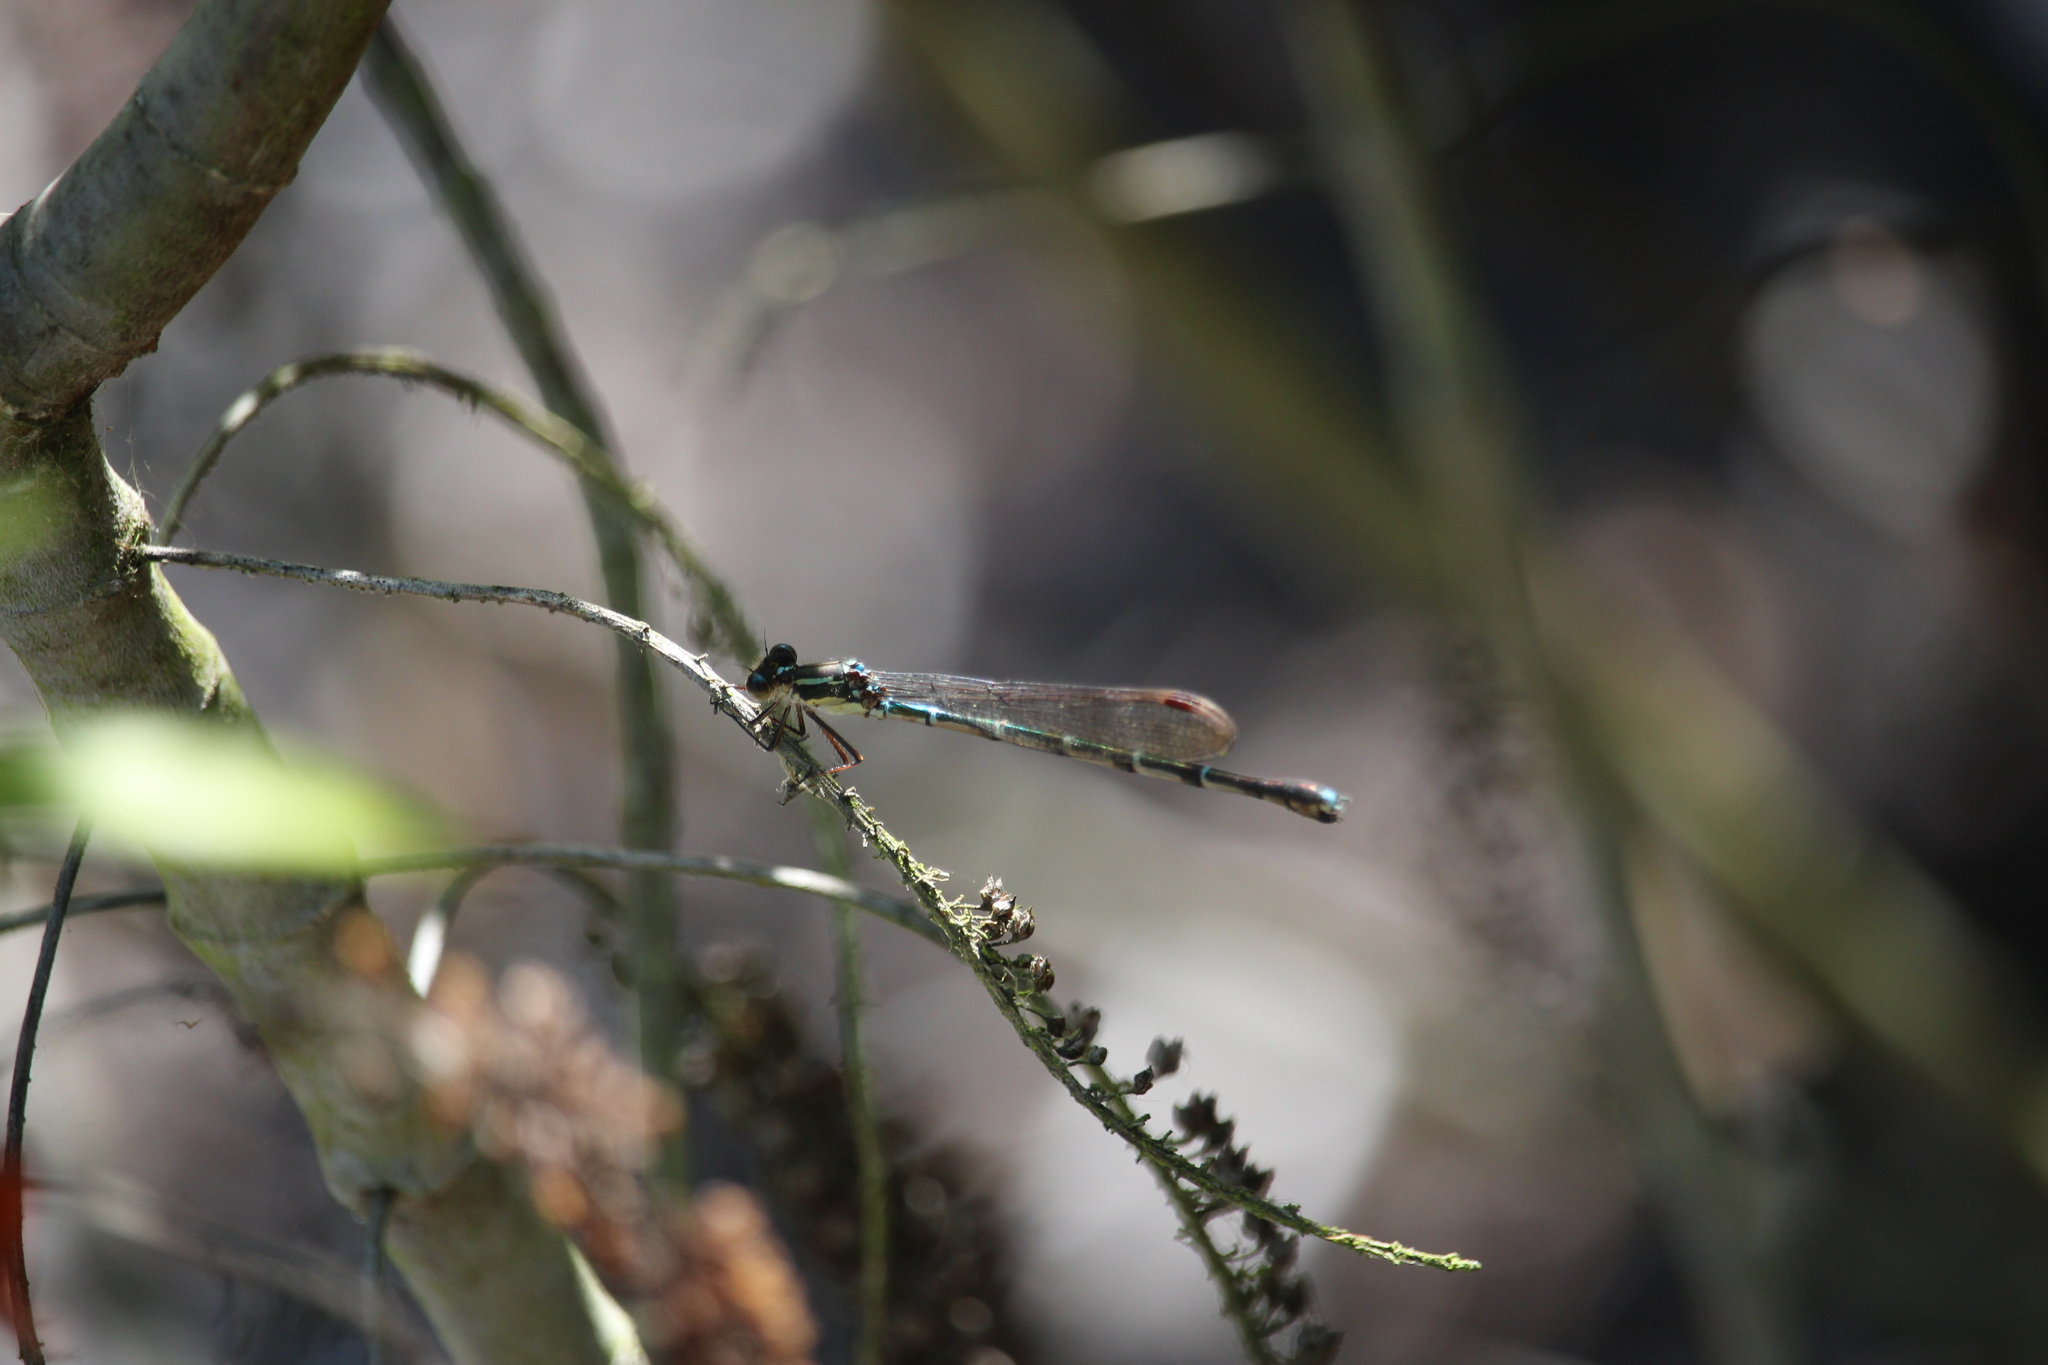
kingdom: Animalia
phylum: Arthropoda
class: Insecta
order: Odonata
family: Lestidae
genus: Austrolestes
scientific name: Austrolestes colensonis
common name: Blue damselfly
